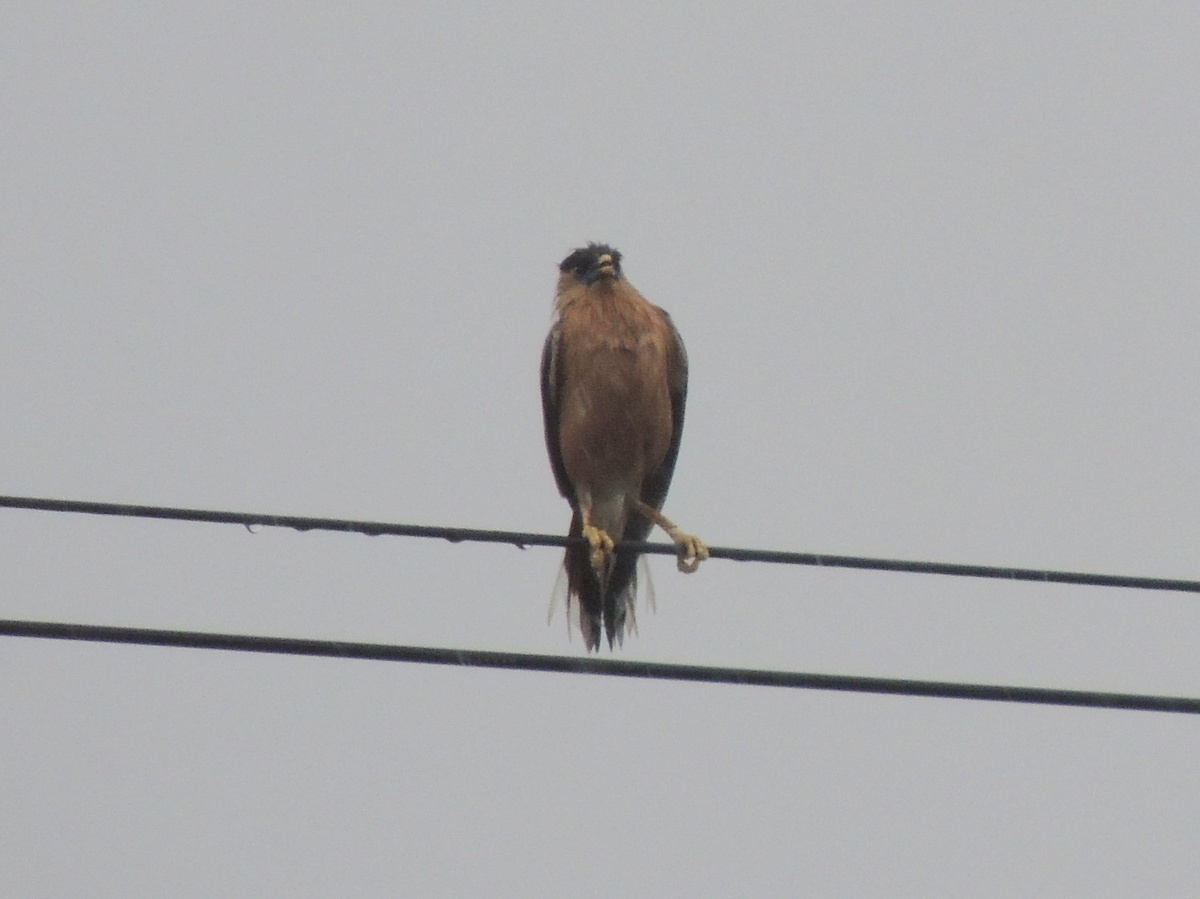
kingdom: Animalia
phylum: Chordata
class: Aves
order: Passeriformes
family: Sturnidae
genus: Sturnia
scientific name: Sturnia pagodarum
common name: Brahminy starling
